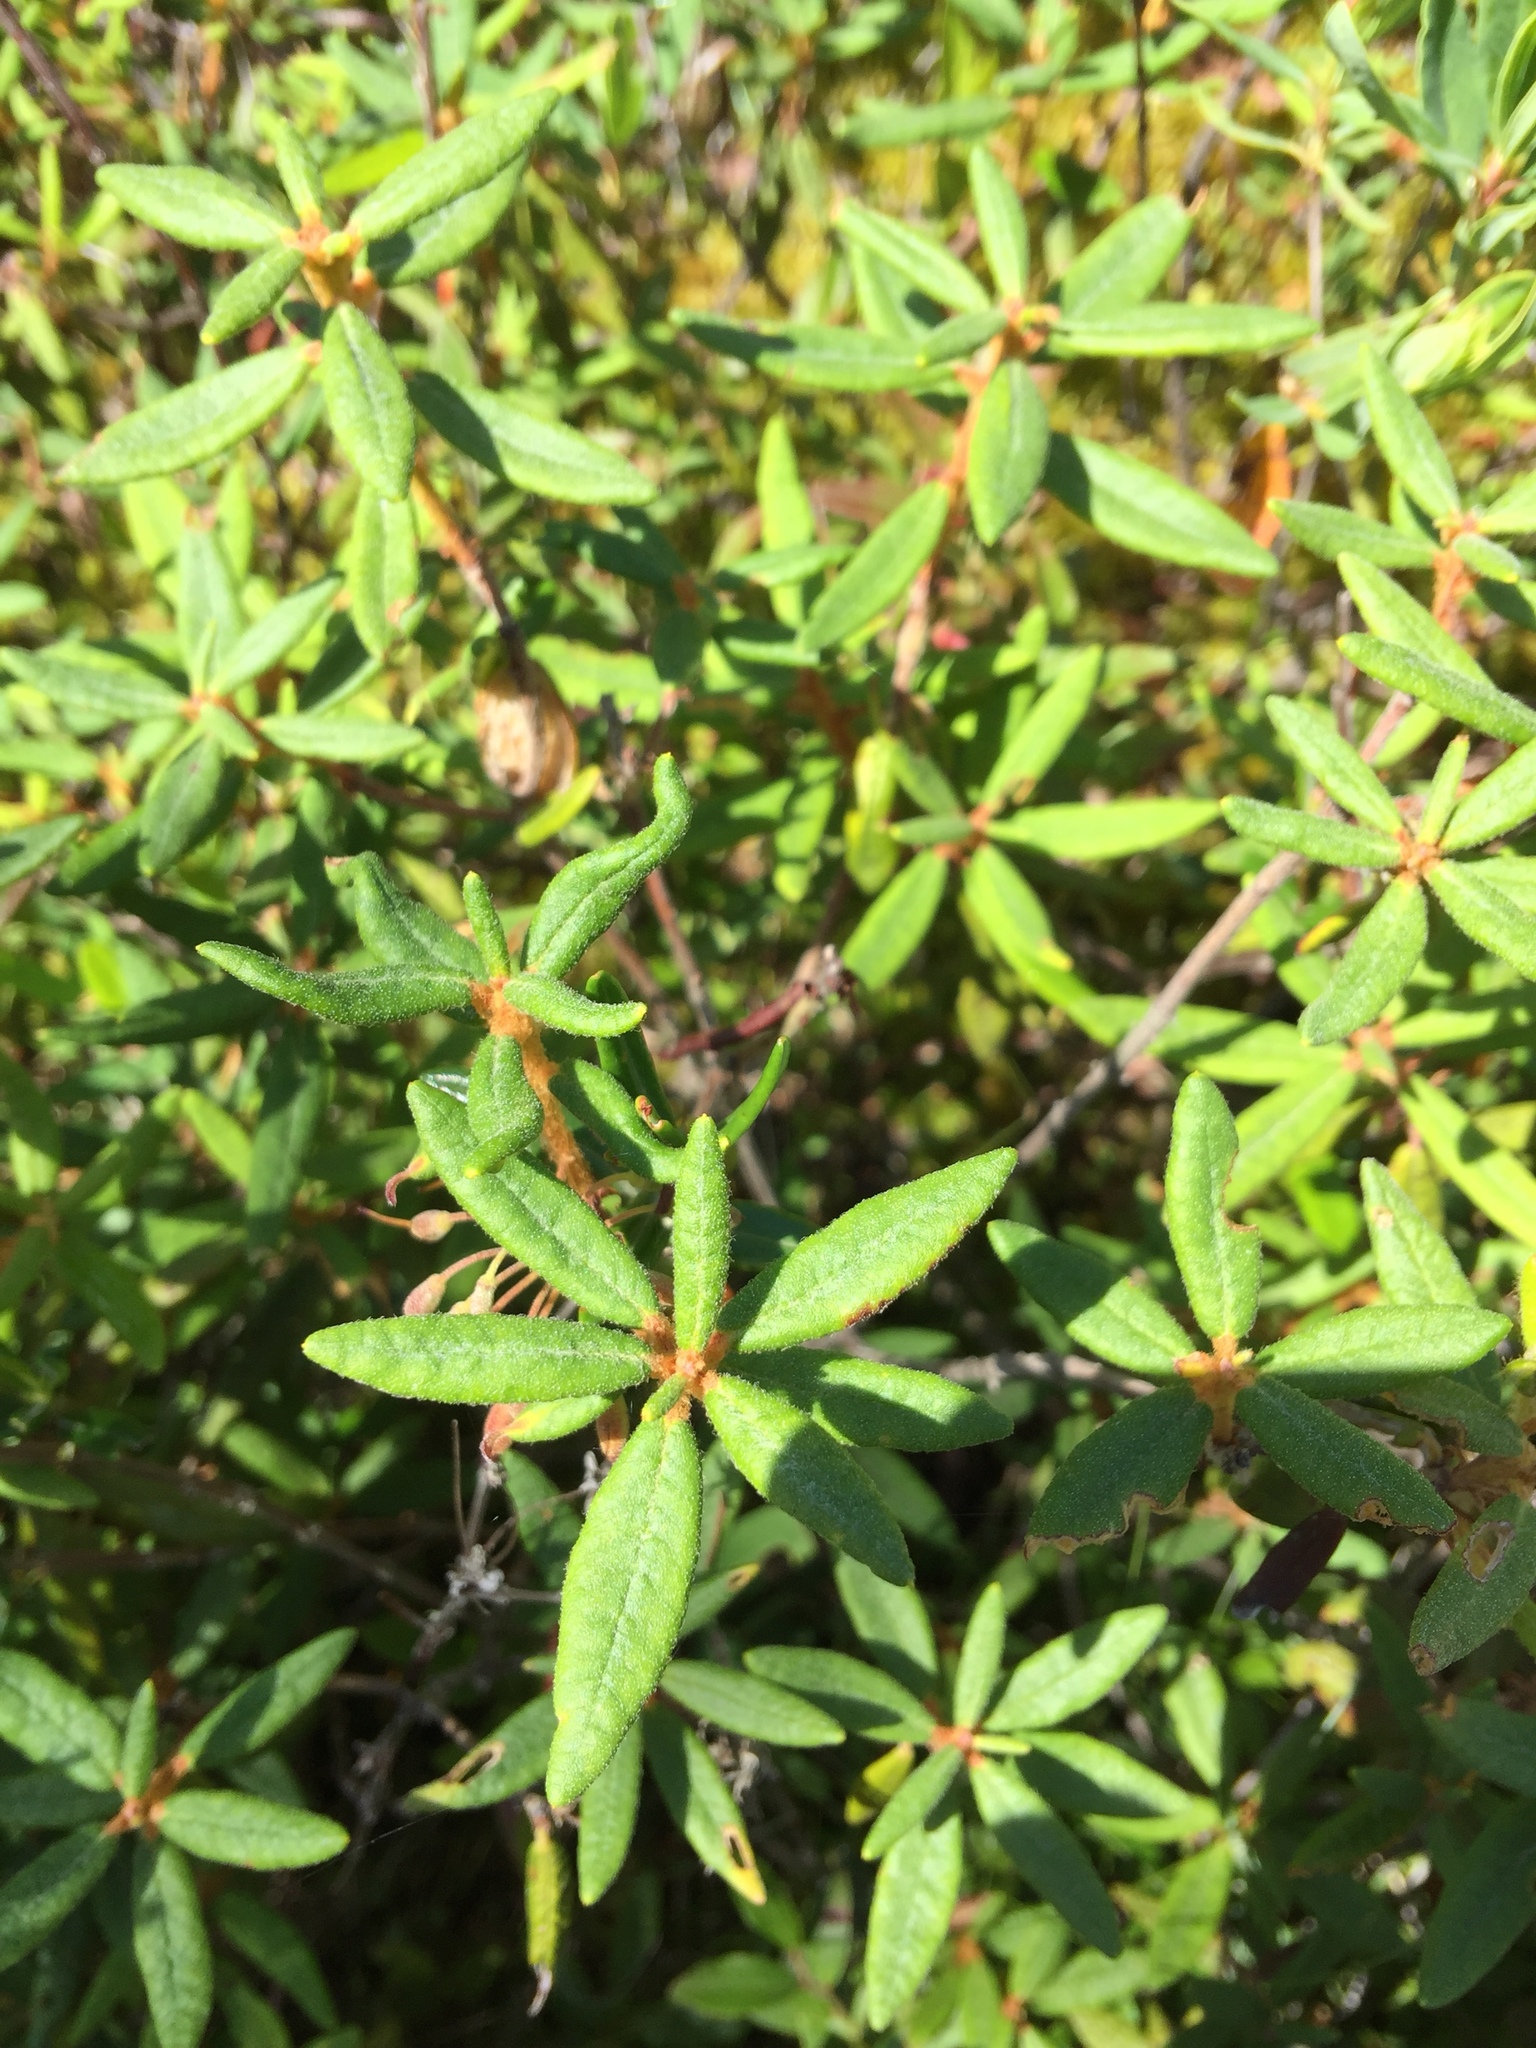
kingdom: Plantae
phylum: Tracheophyta
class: Magnoliopsida
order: Ericales
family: Ericaceae
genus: Rhododendron
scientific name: Rhododendron groenlandicum
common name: Bog labrador tea
